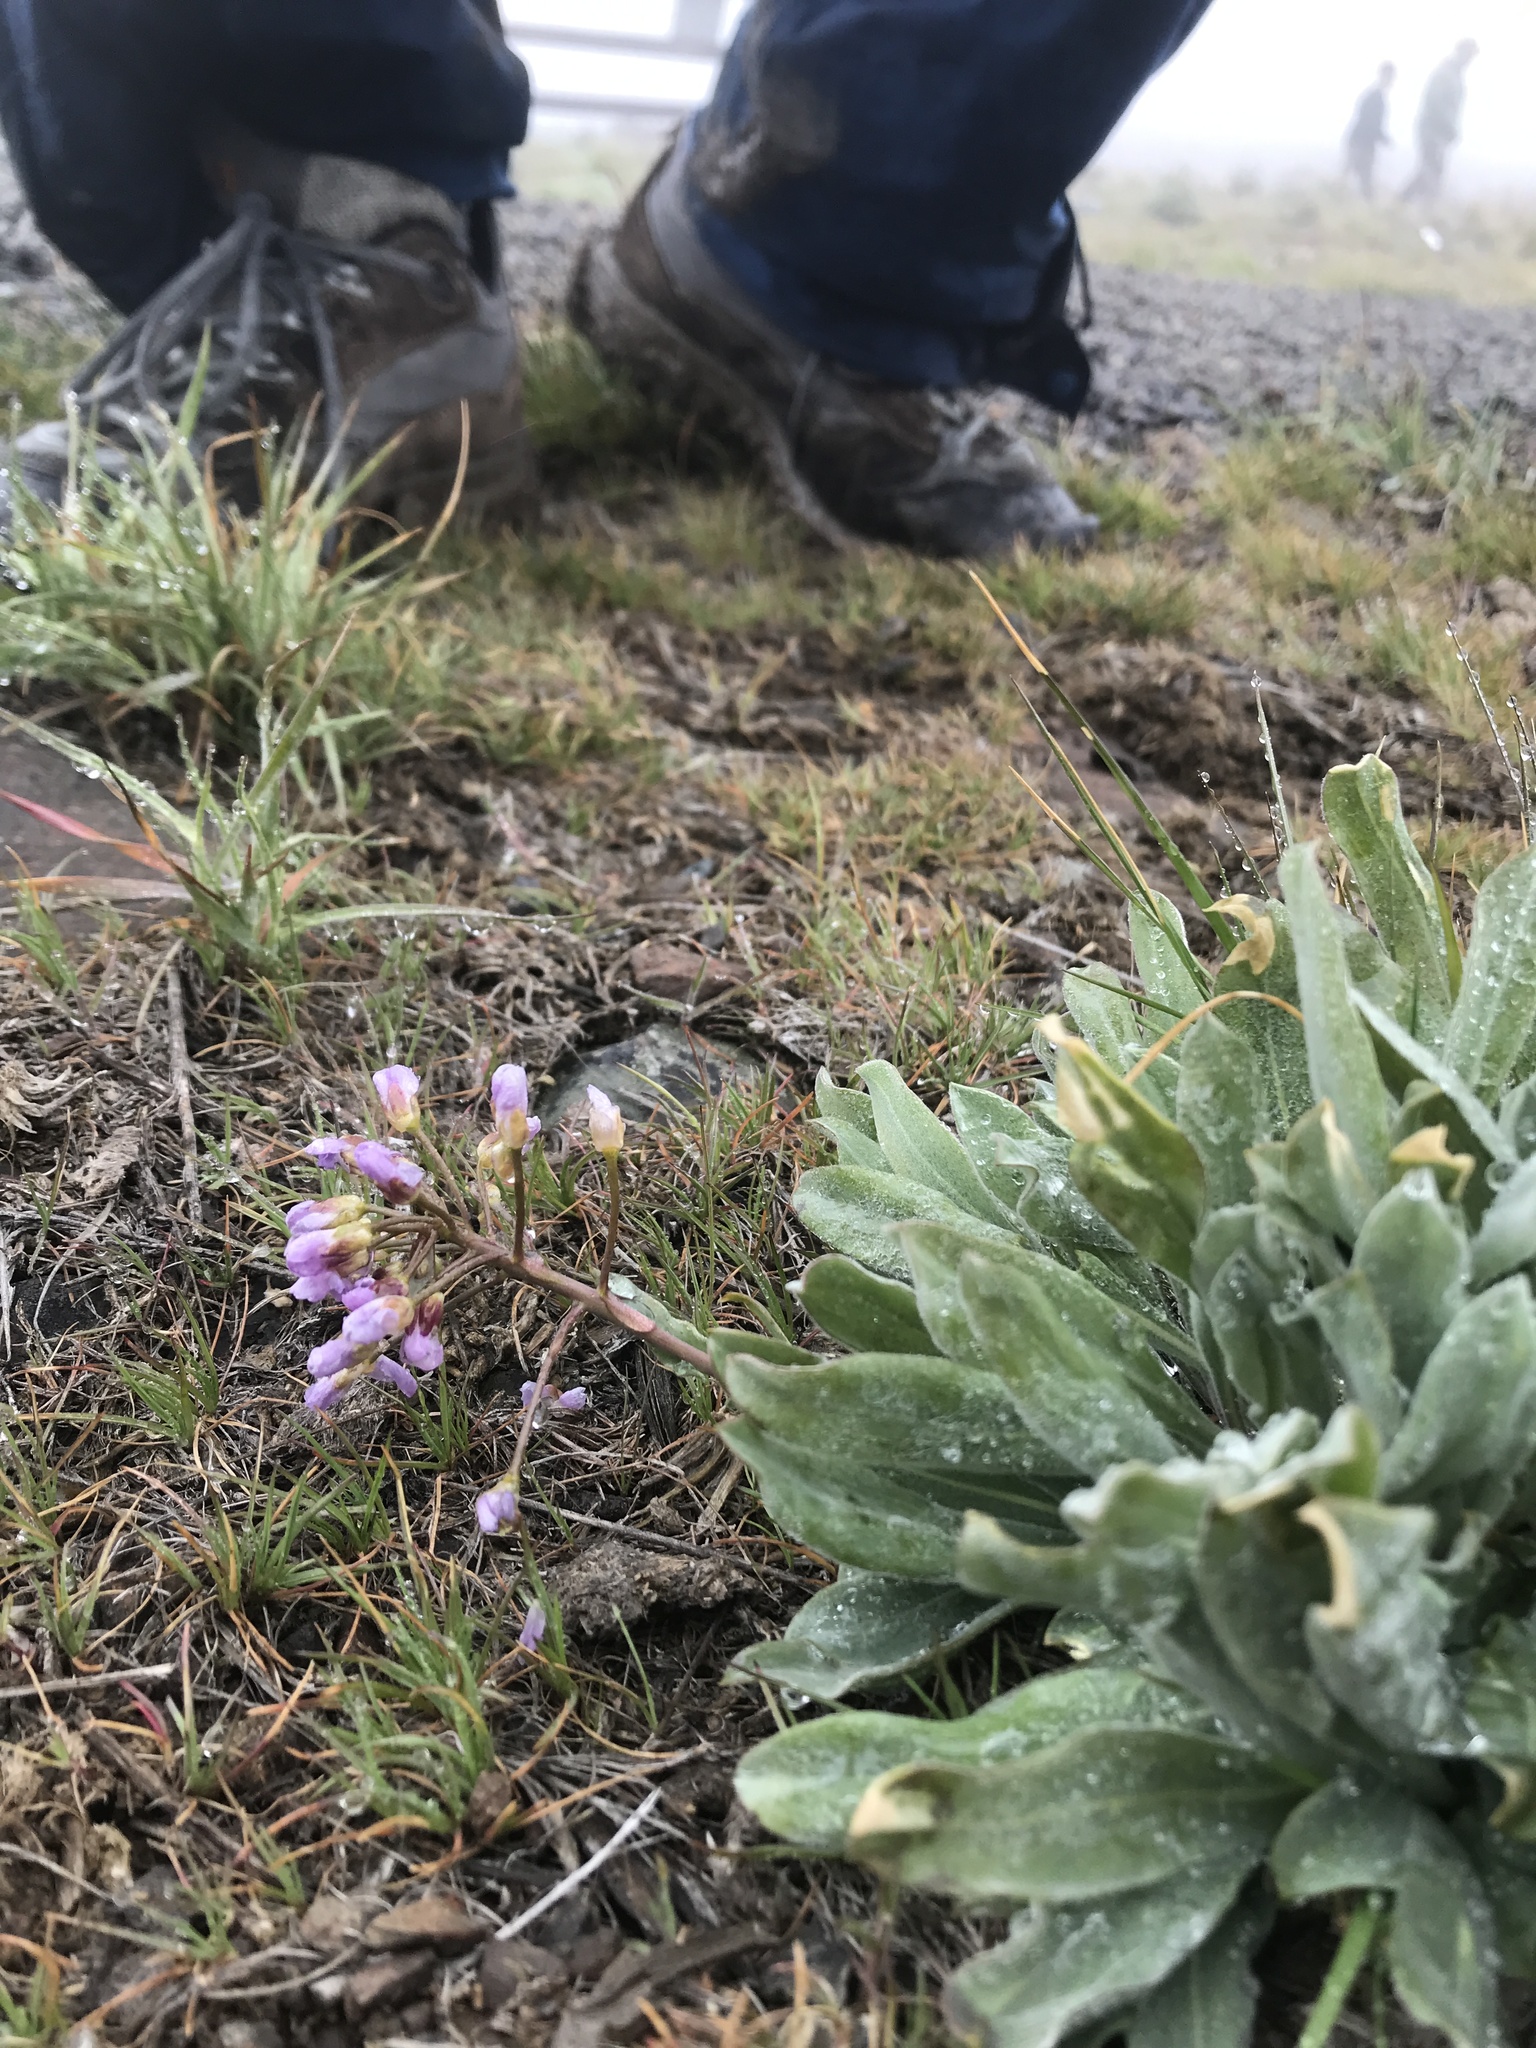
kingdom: Plantae
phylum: Tracheophyta
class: Magnoliopsida
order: Brassicales
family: Brassicaceae
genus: Phoenicaulis
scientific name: Phoenicaulis cheiranthoides
